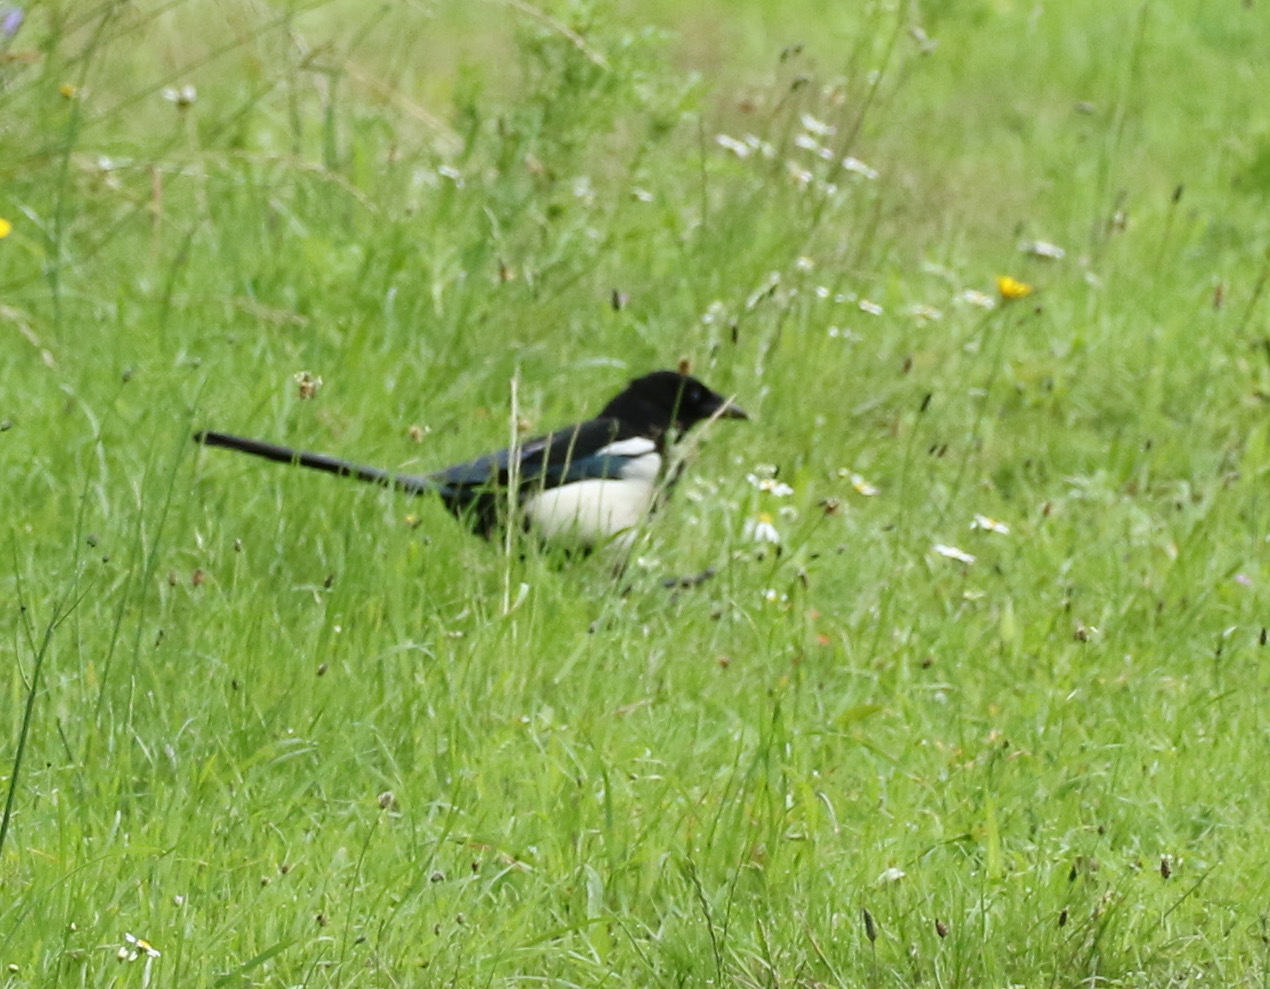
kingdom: Animalia
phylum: Chordata
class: Aves
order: Passeriformes
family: Corvidae
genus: Pica
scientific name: Pica pica
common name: Eurasian magpie
